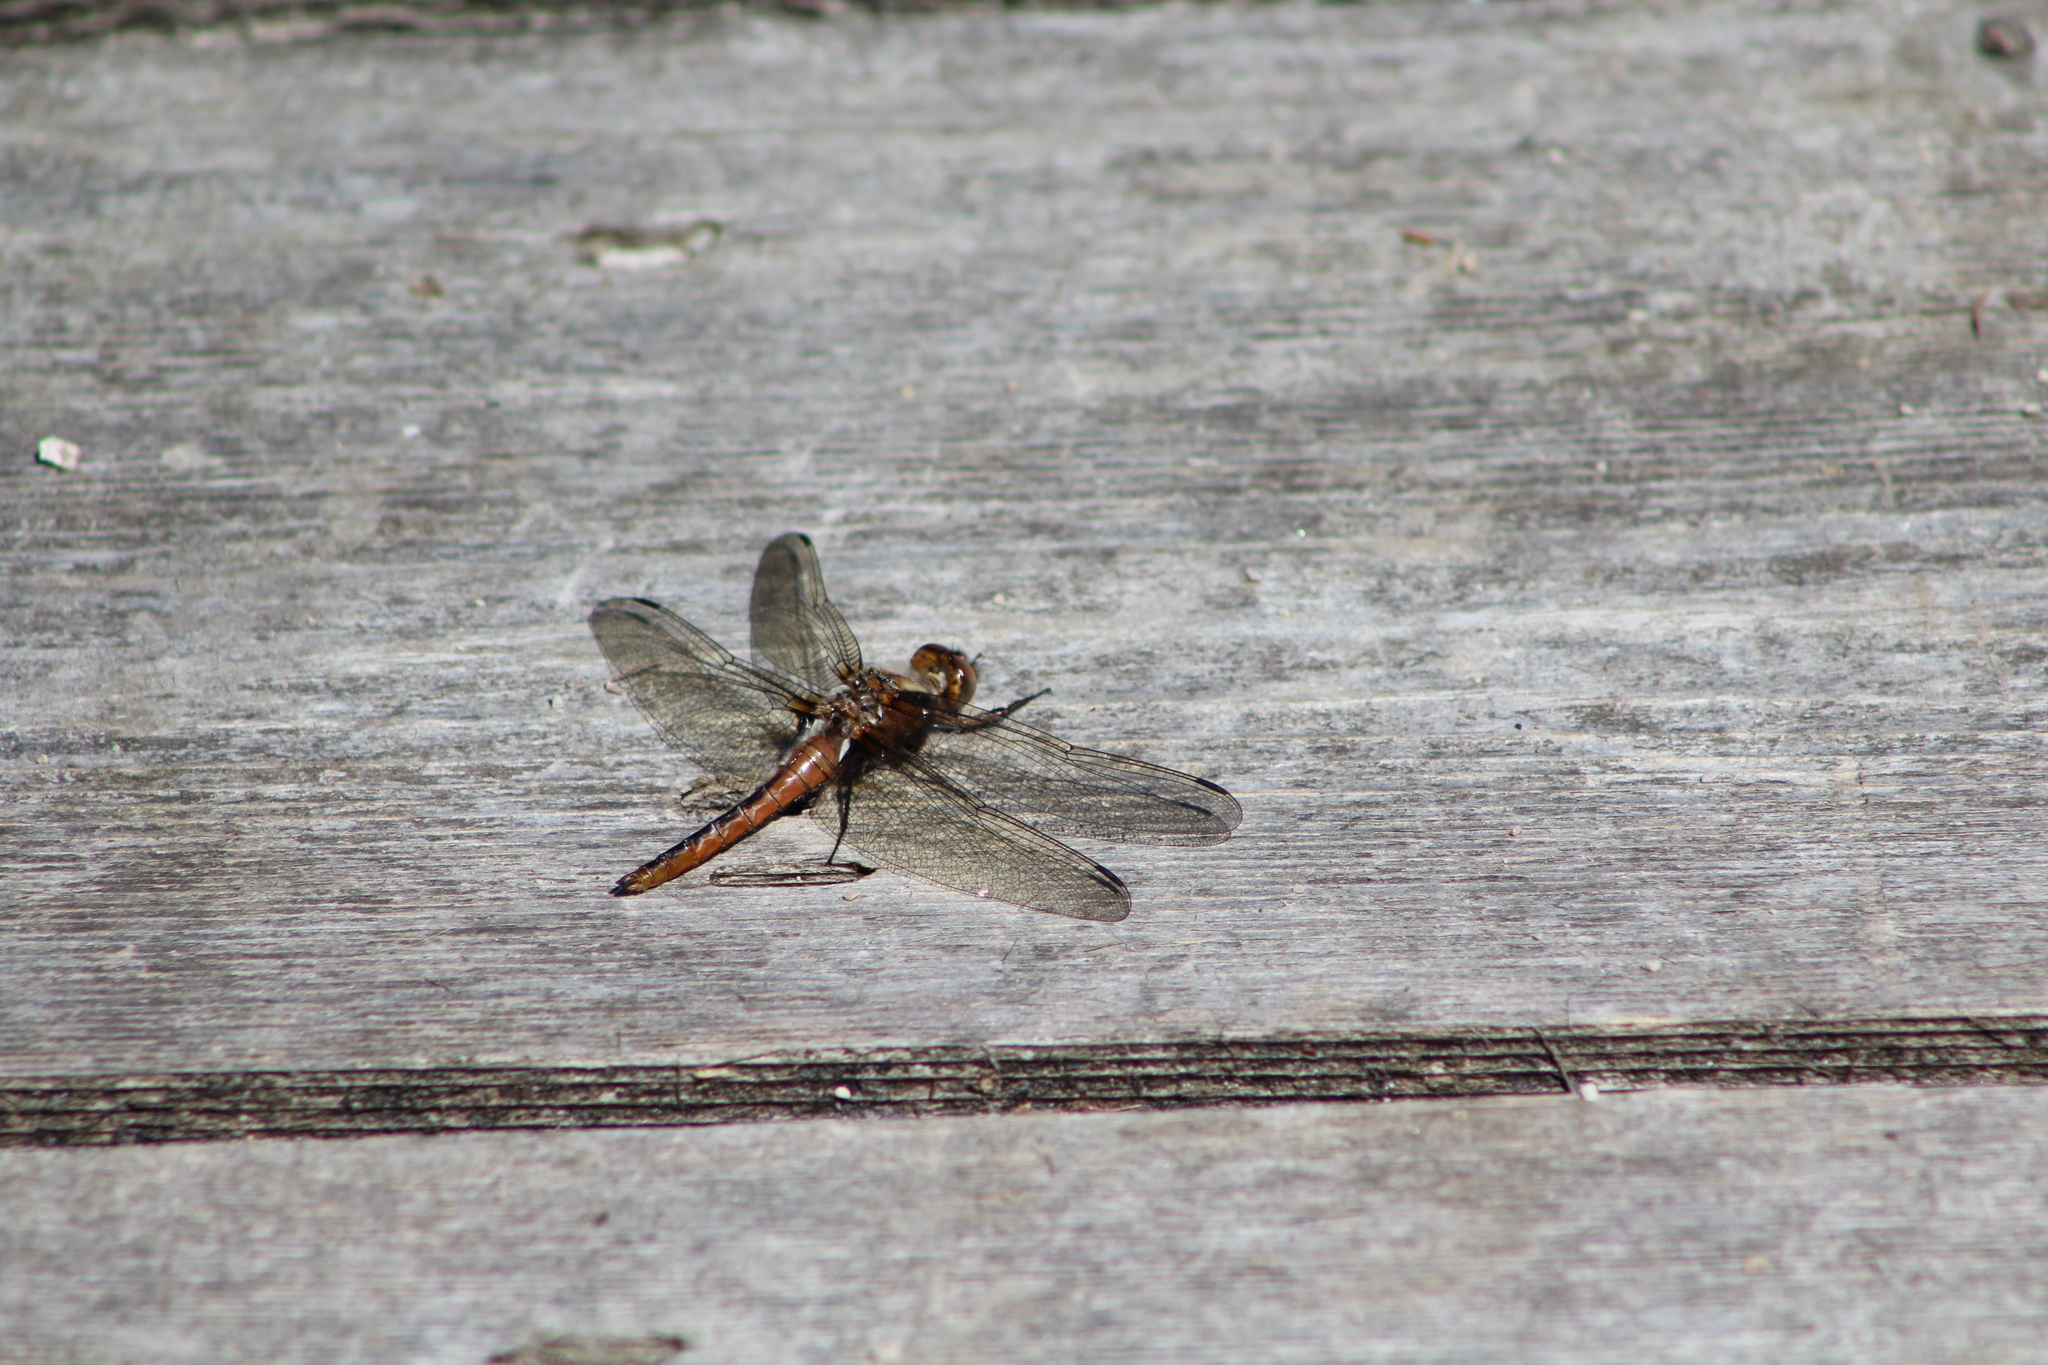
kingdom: Animalia
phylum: Arthropoda
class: Insecta
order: Odonata
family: Libellulidae
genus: Ladona
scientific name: Ladona julia
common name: Chalk-fronted corporal
